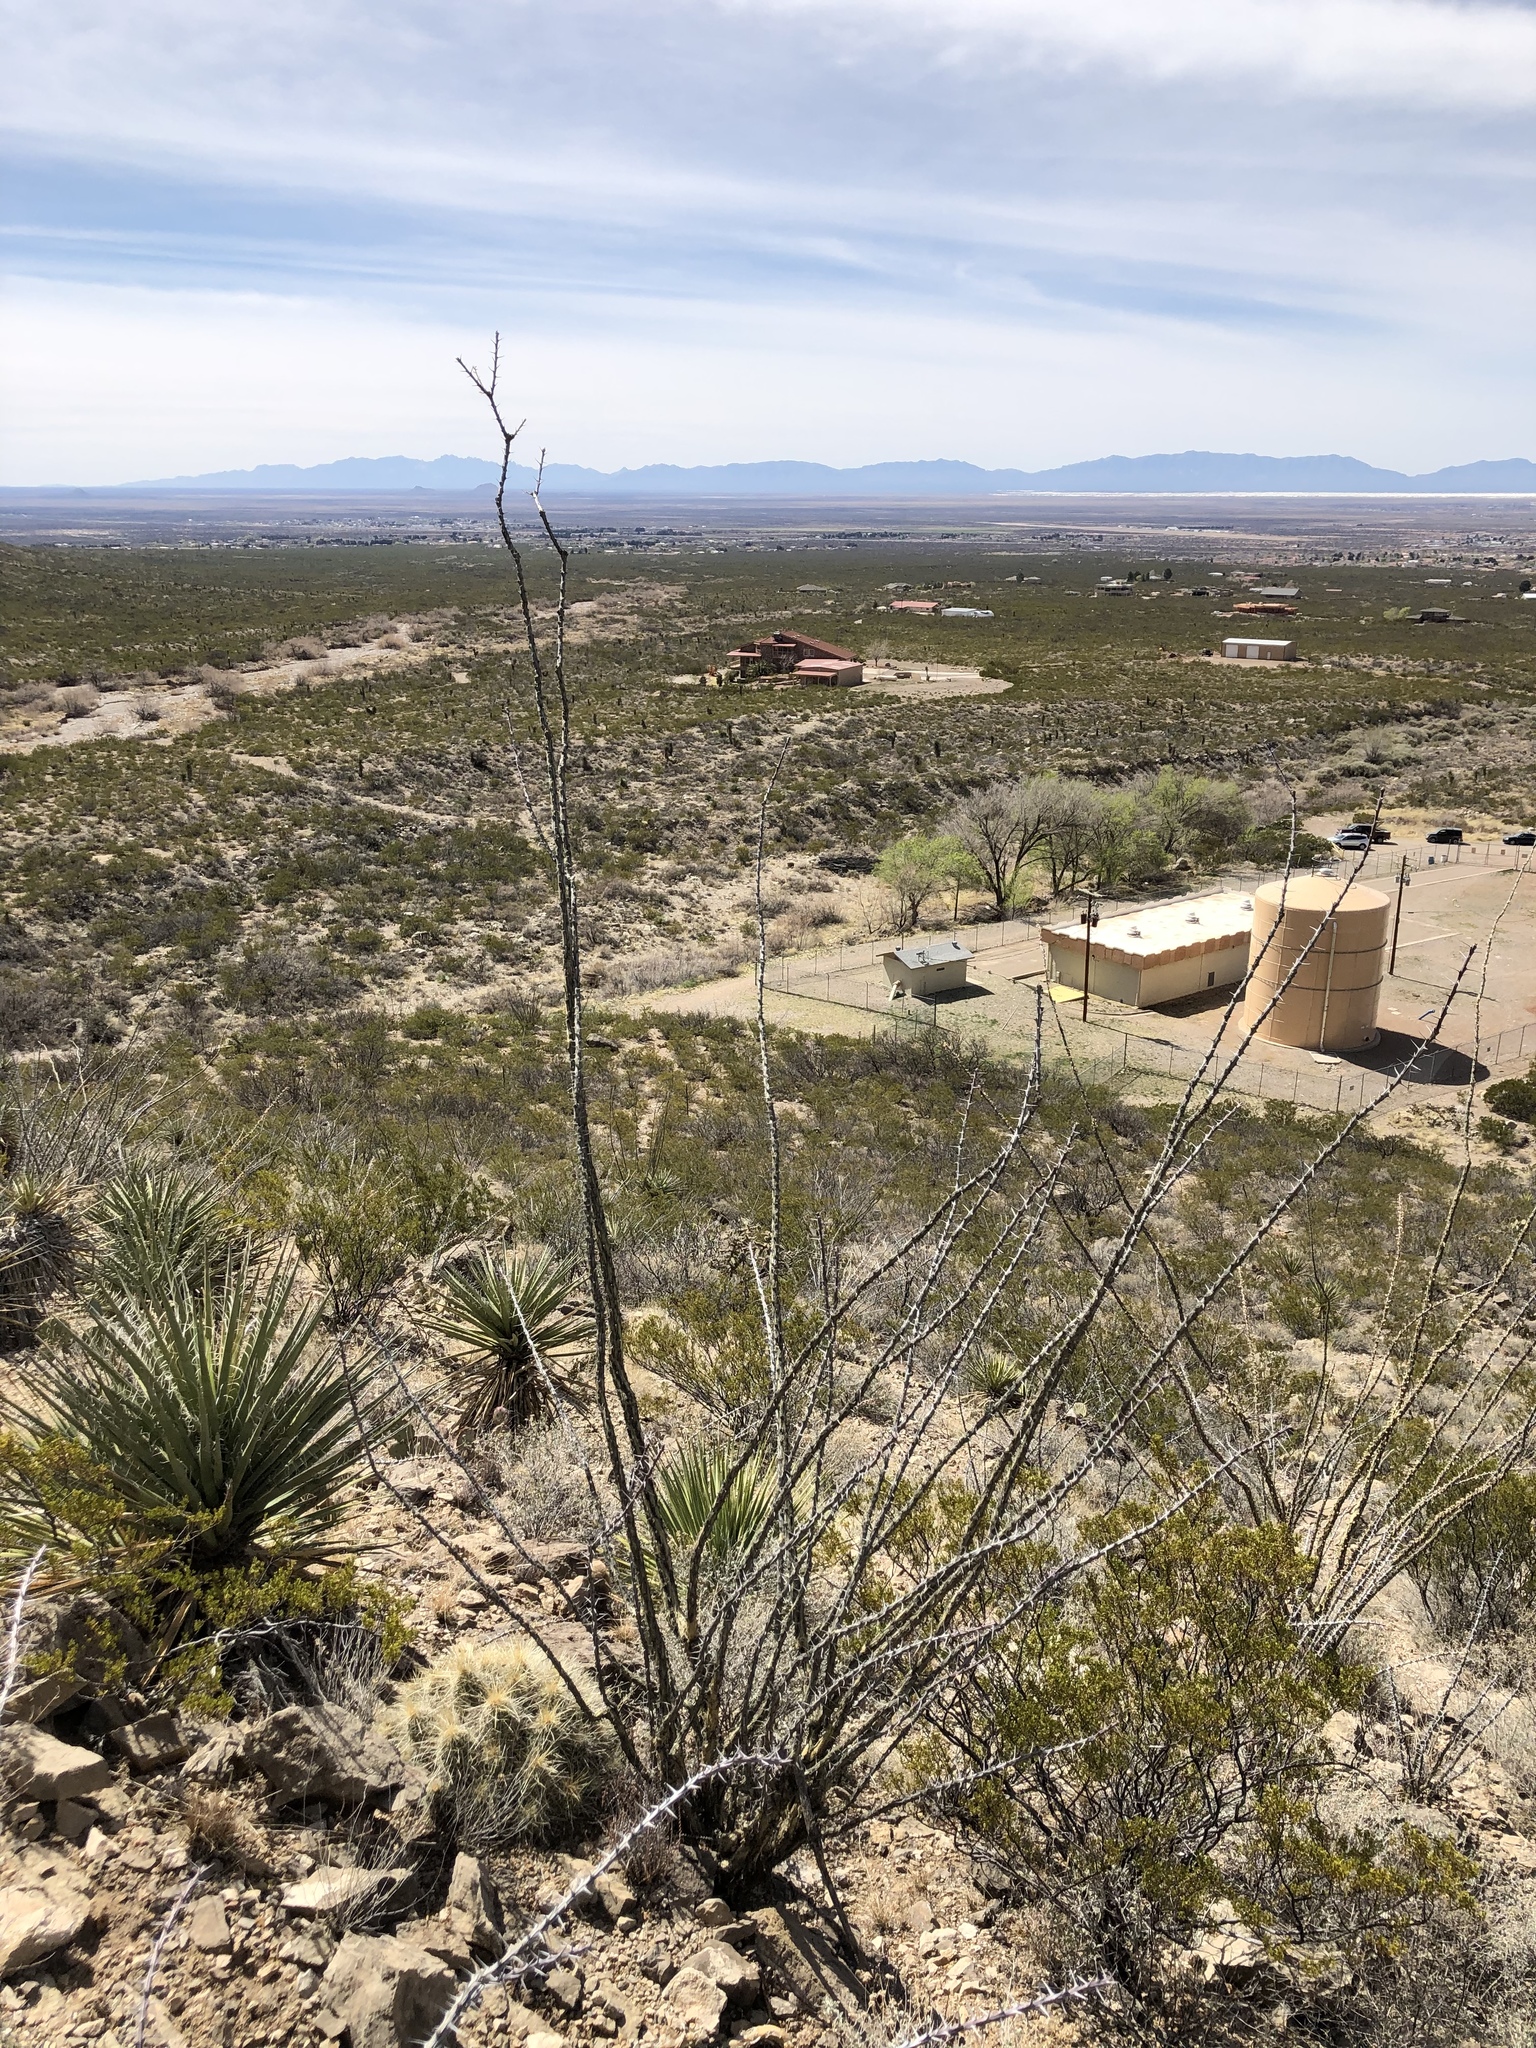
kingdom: Plantae
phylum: Tracheophyta
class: Magnoliopsida
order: Ericales
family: Fouquieriaceae
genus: Fouquieria
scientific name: Fouquieria splendens
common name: Vine-cactus
